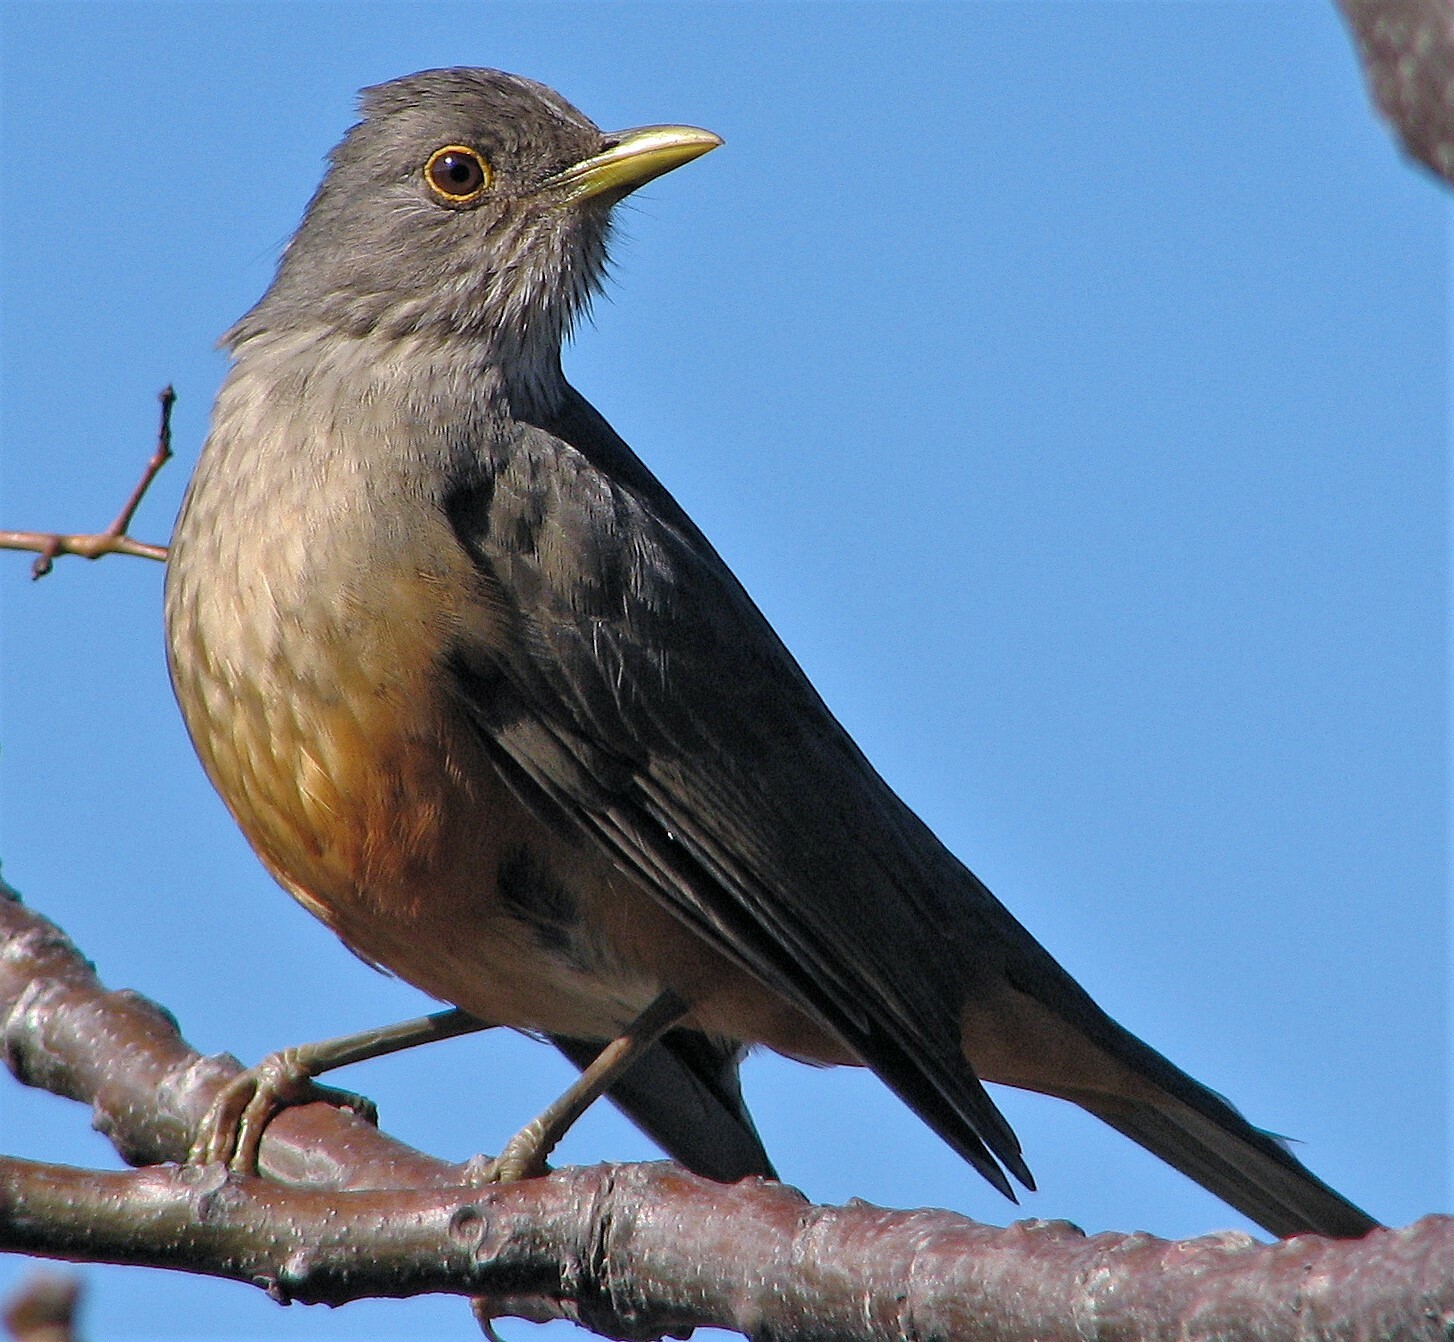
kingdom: Animalia
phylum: Chordata
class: Aves
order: Passeriformes
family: Turdidae
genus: Turdus
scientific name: Turdus rufiventris
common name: Rufous-bellied thrush
